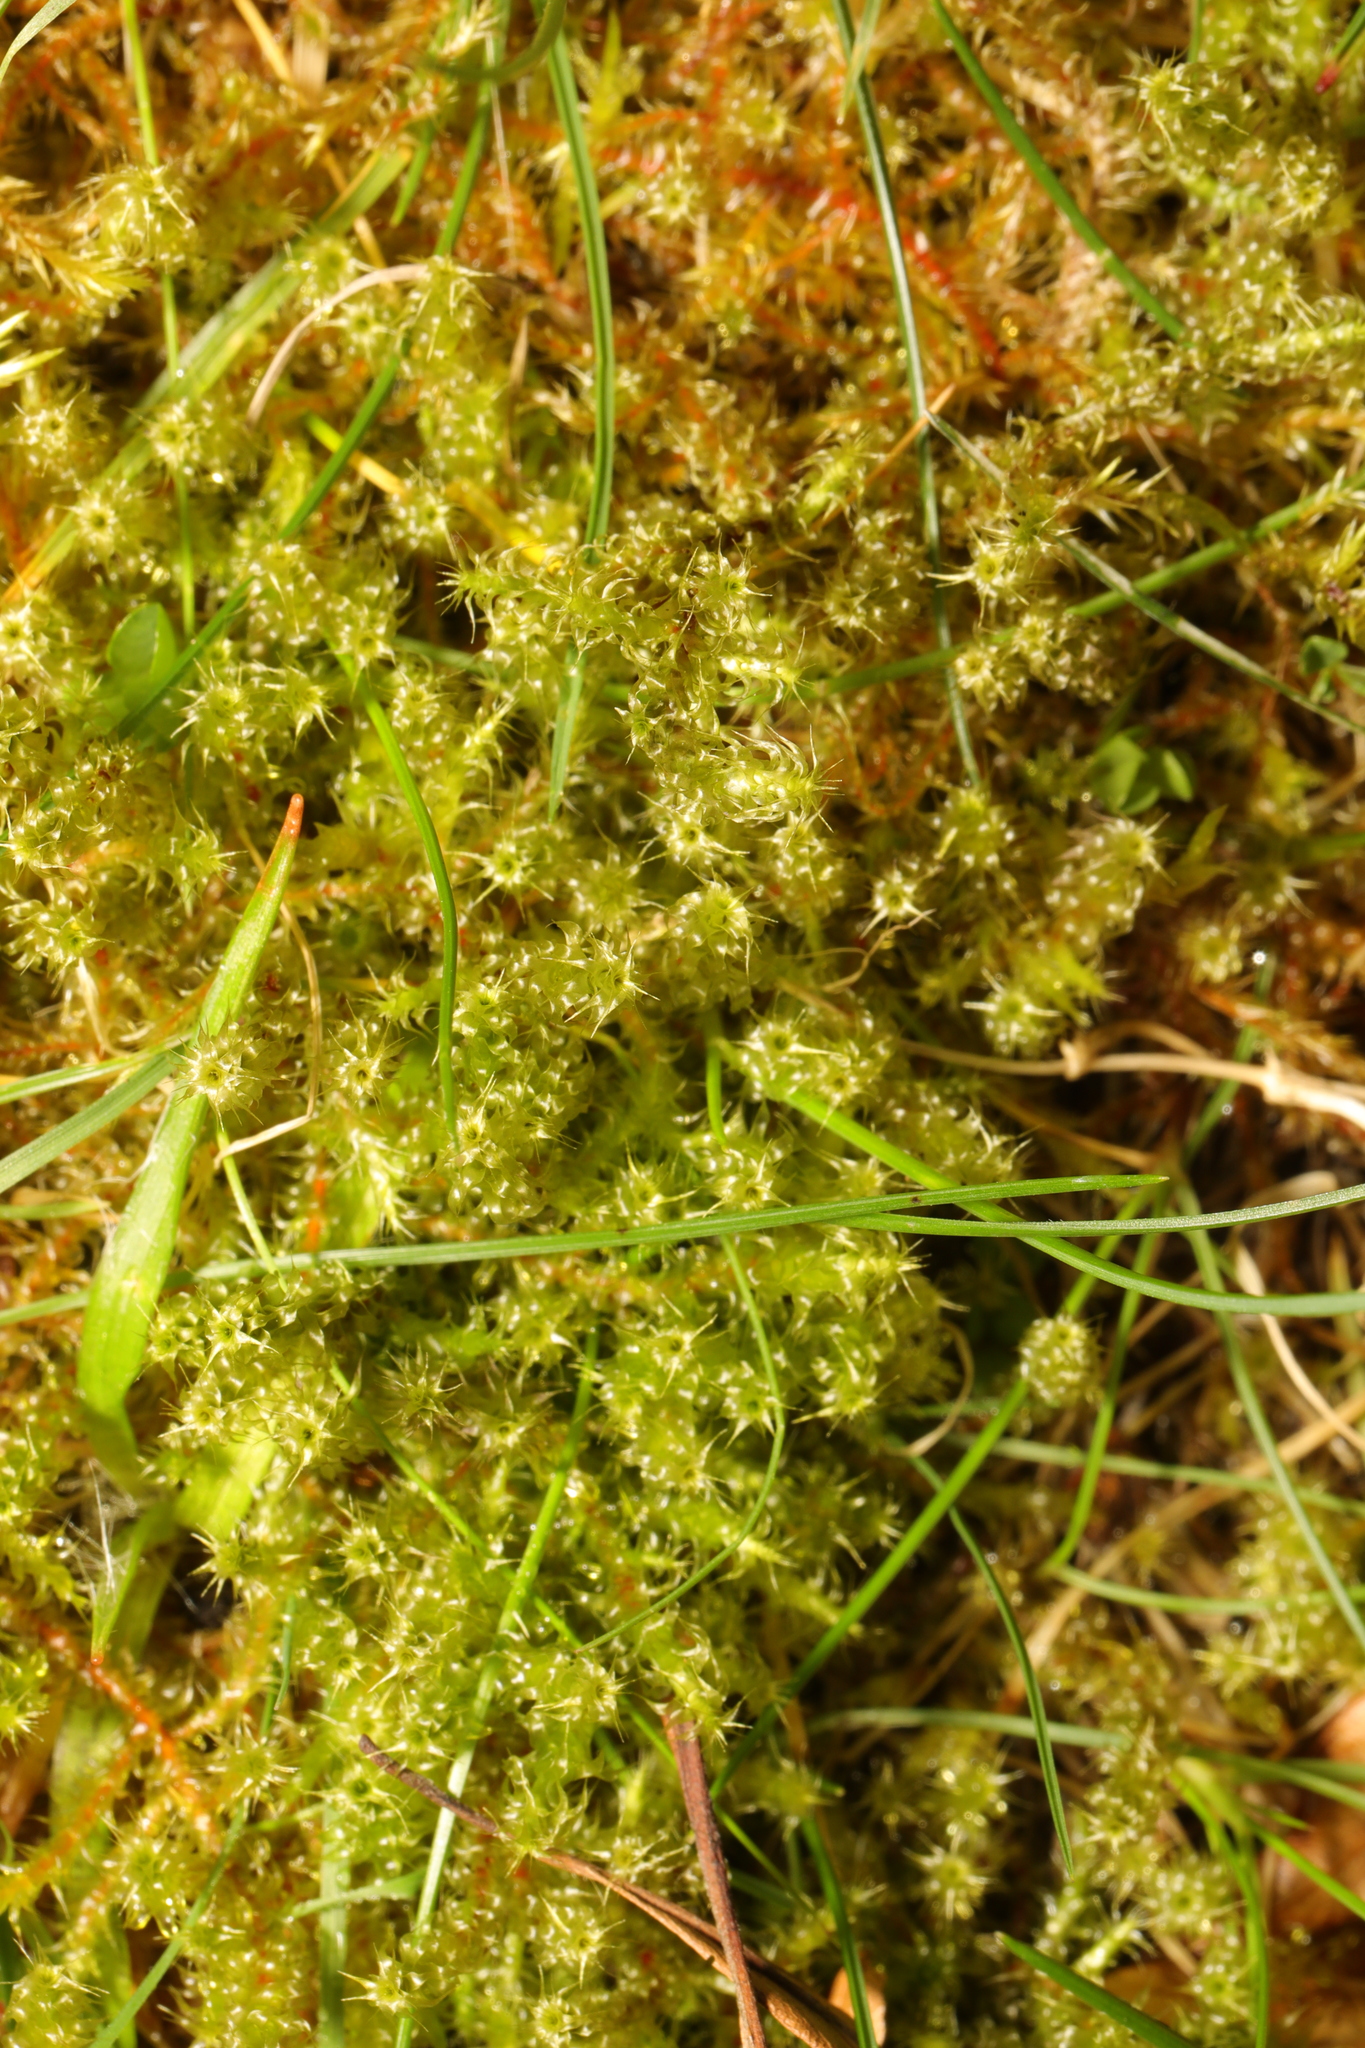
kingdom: Plantae
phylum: Bryophyta
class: Bryopsida
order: Hypnales
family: Hylocomiaceae
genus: Rhytidiadelphus
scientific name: Rhytidiadelphus squarrosus
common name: Springy turf-moss
